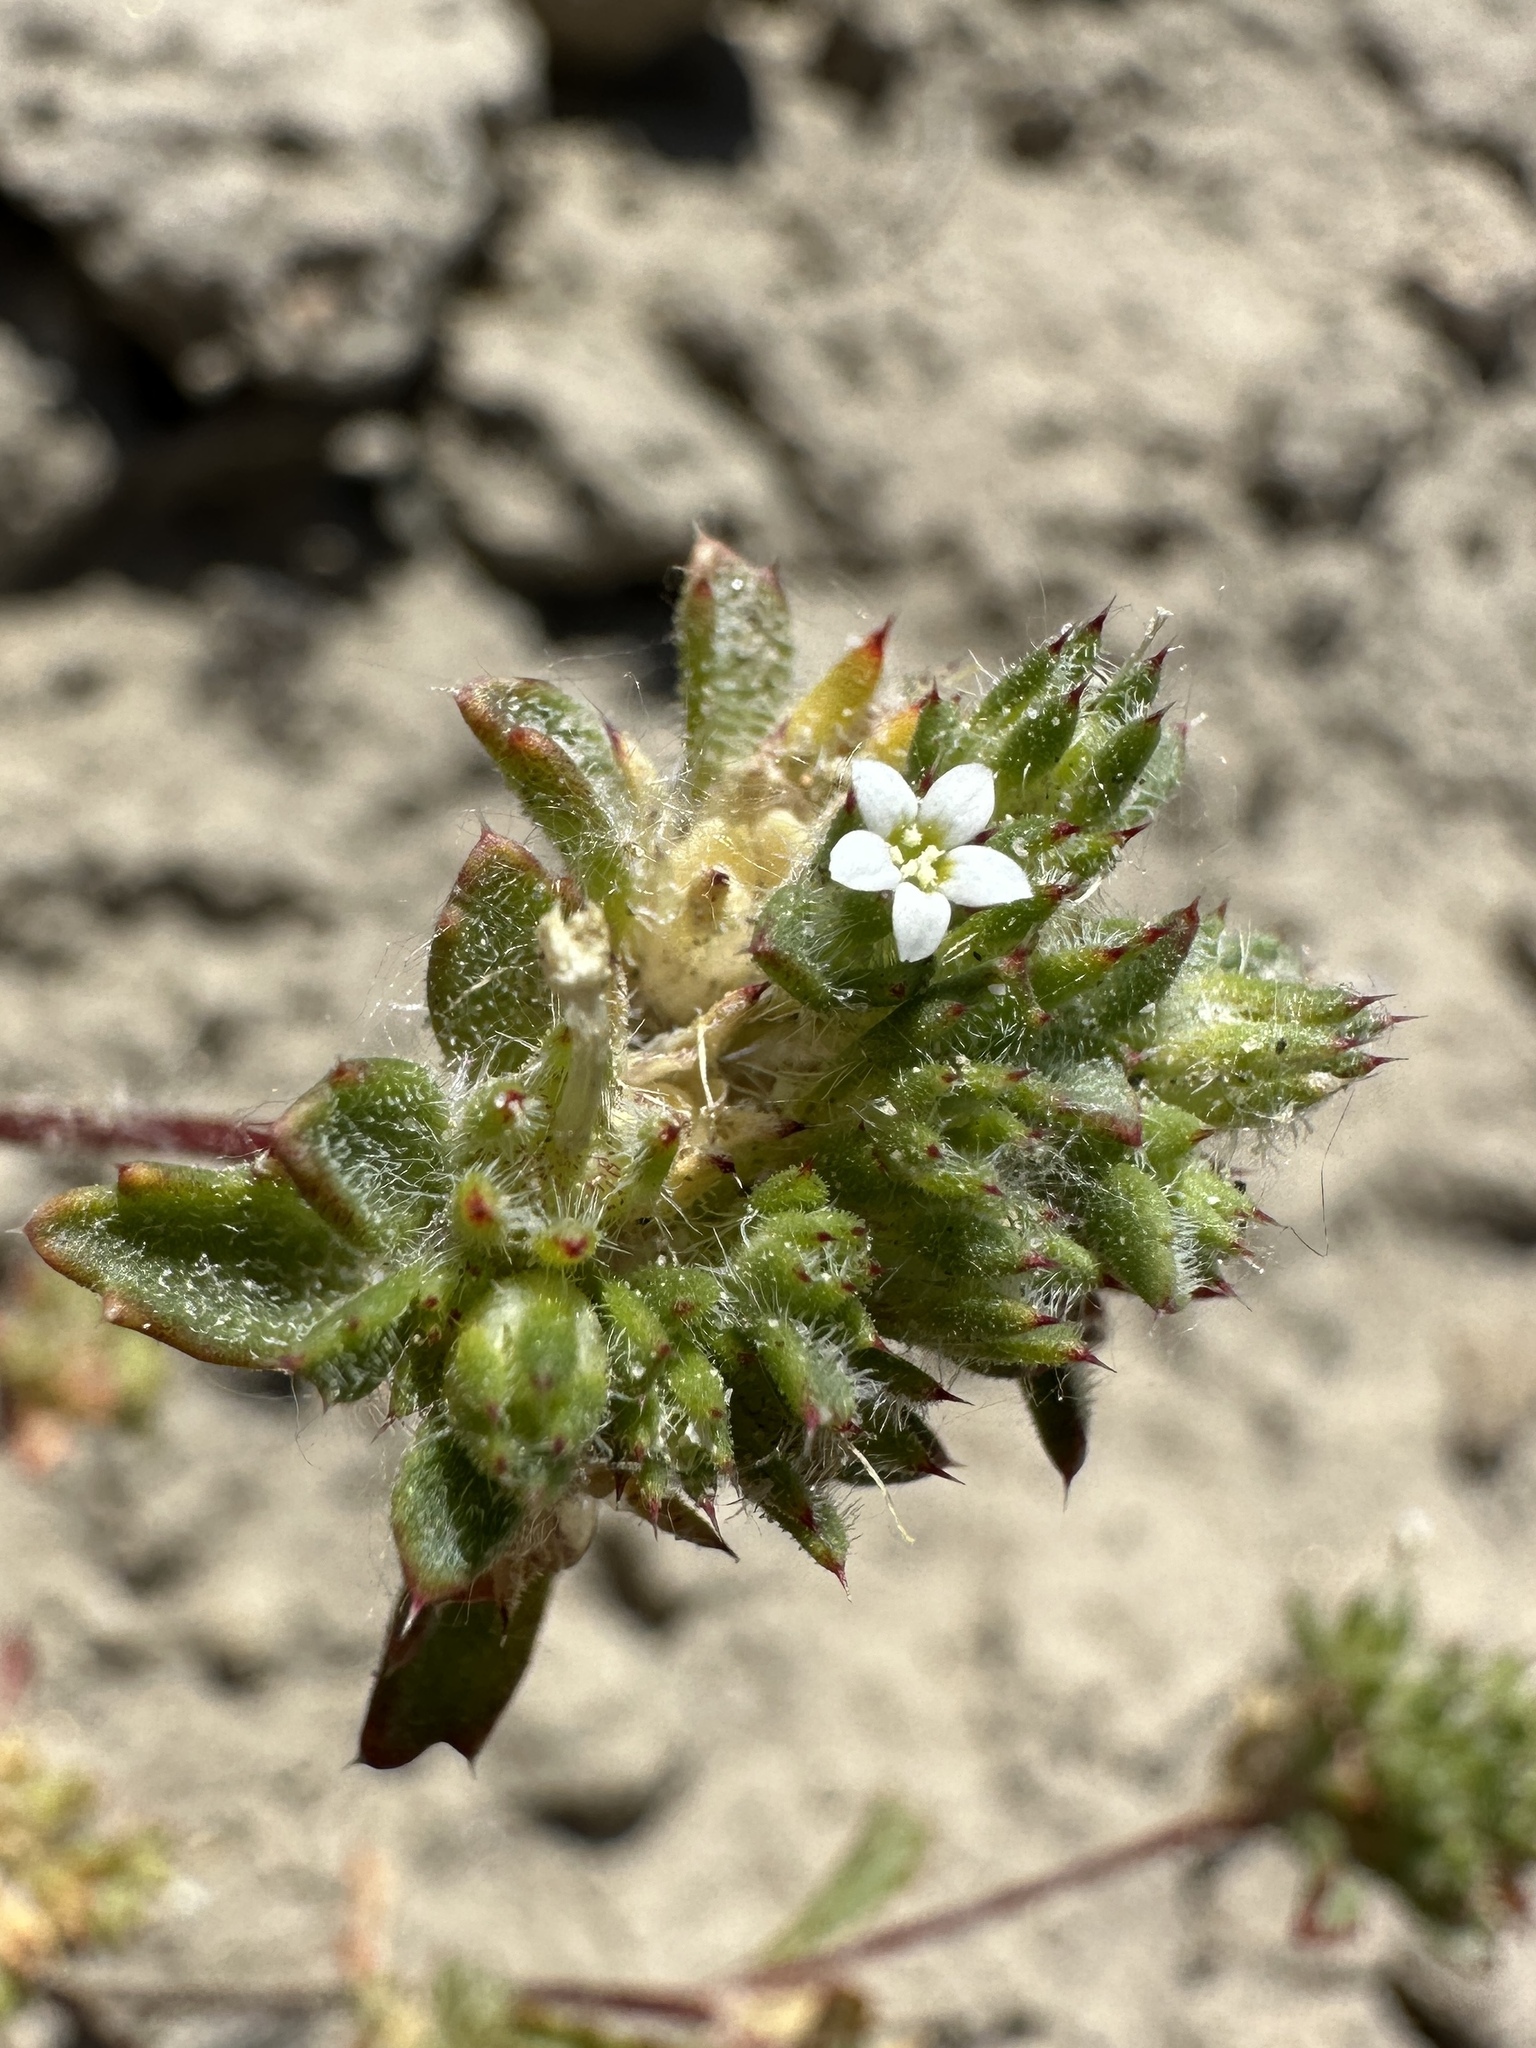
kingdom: Plantae
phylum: Tracheophyta
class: Magnoliopsida
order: Ericales
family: Polemoniaceae
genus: Ipomopsis
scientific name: Ipomopsis polycladon
